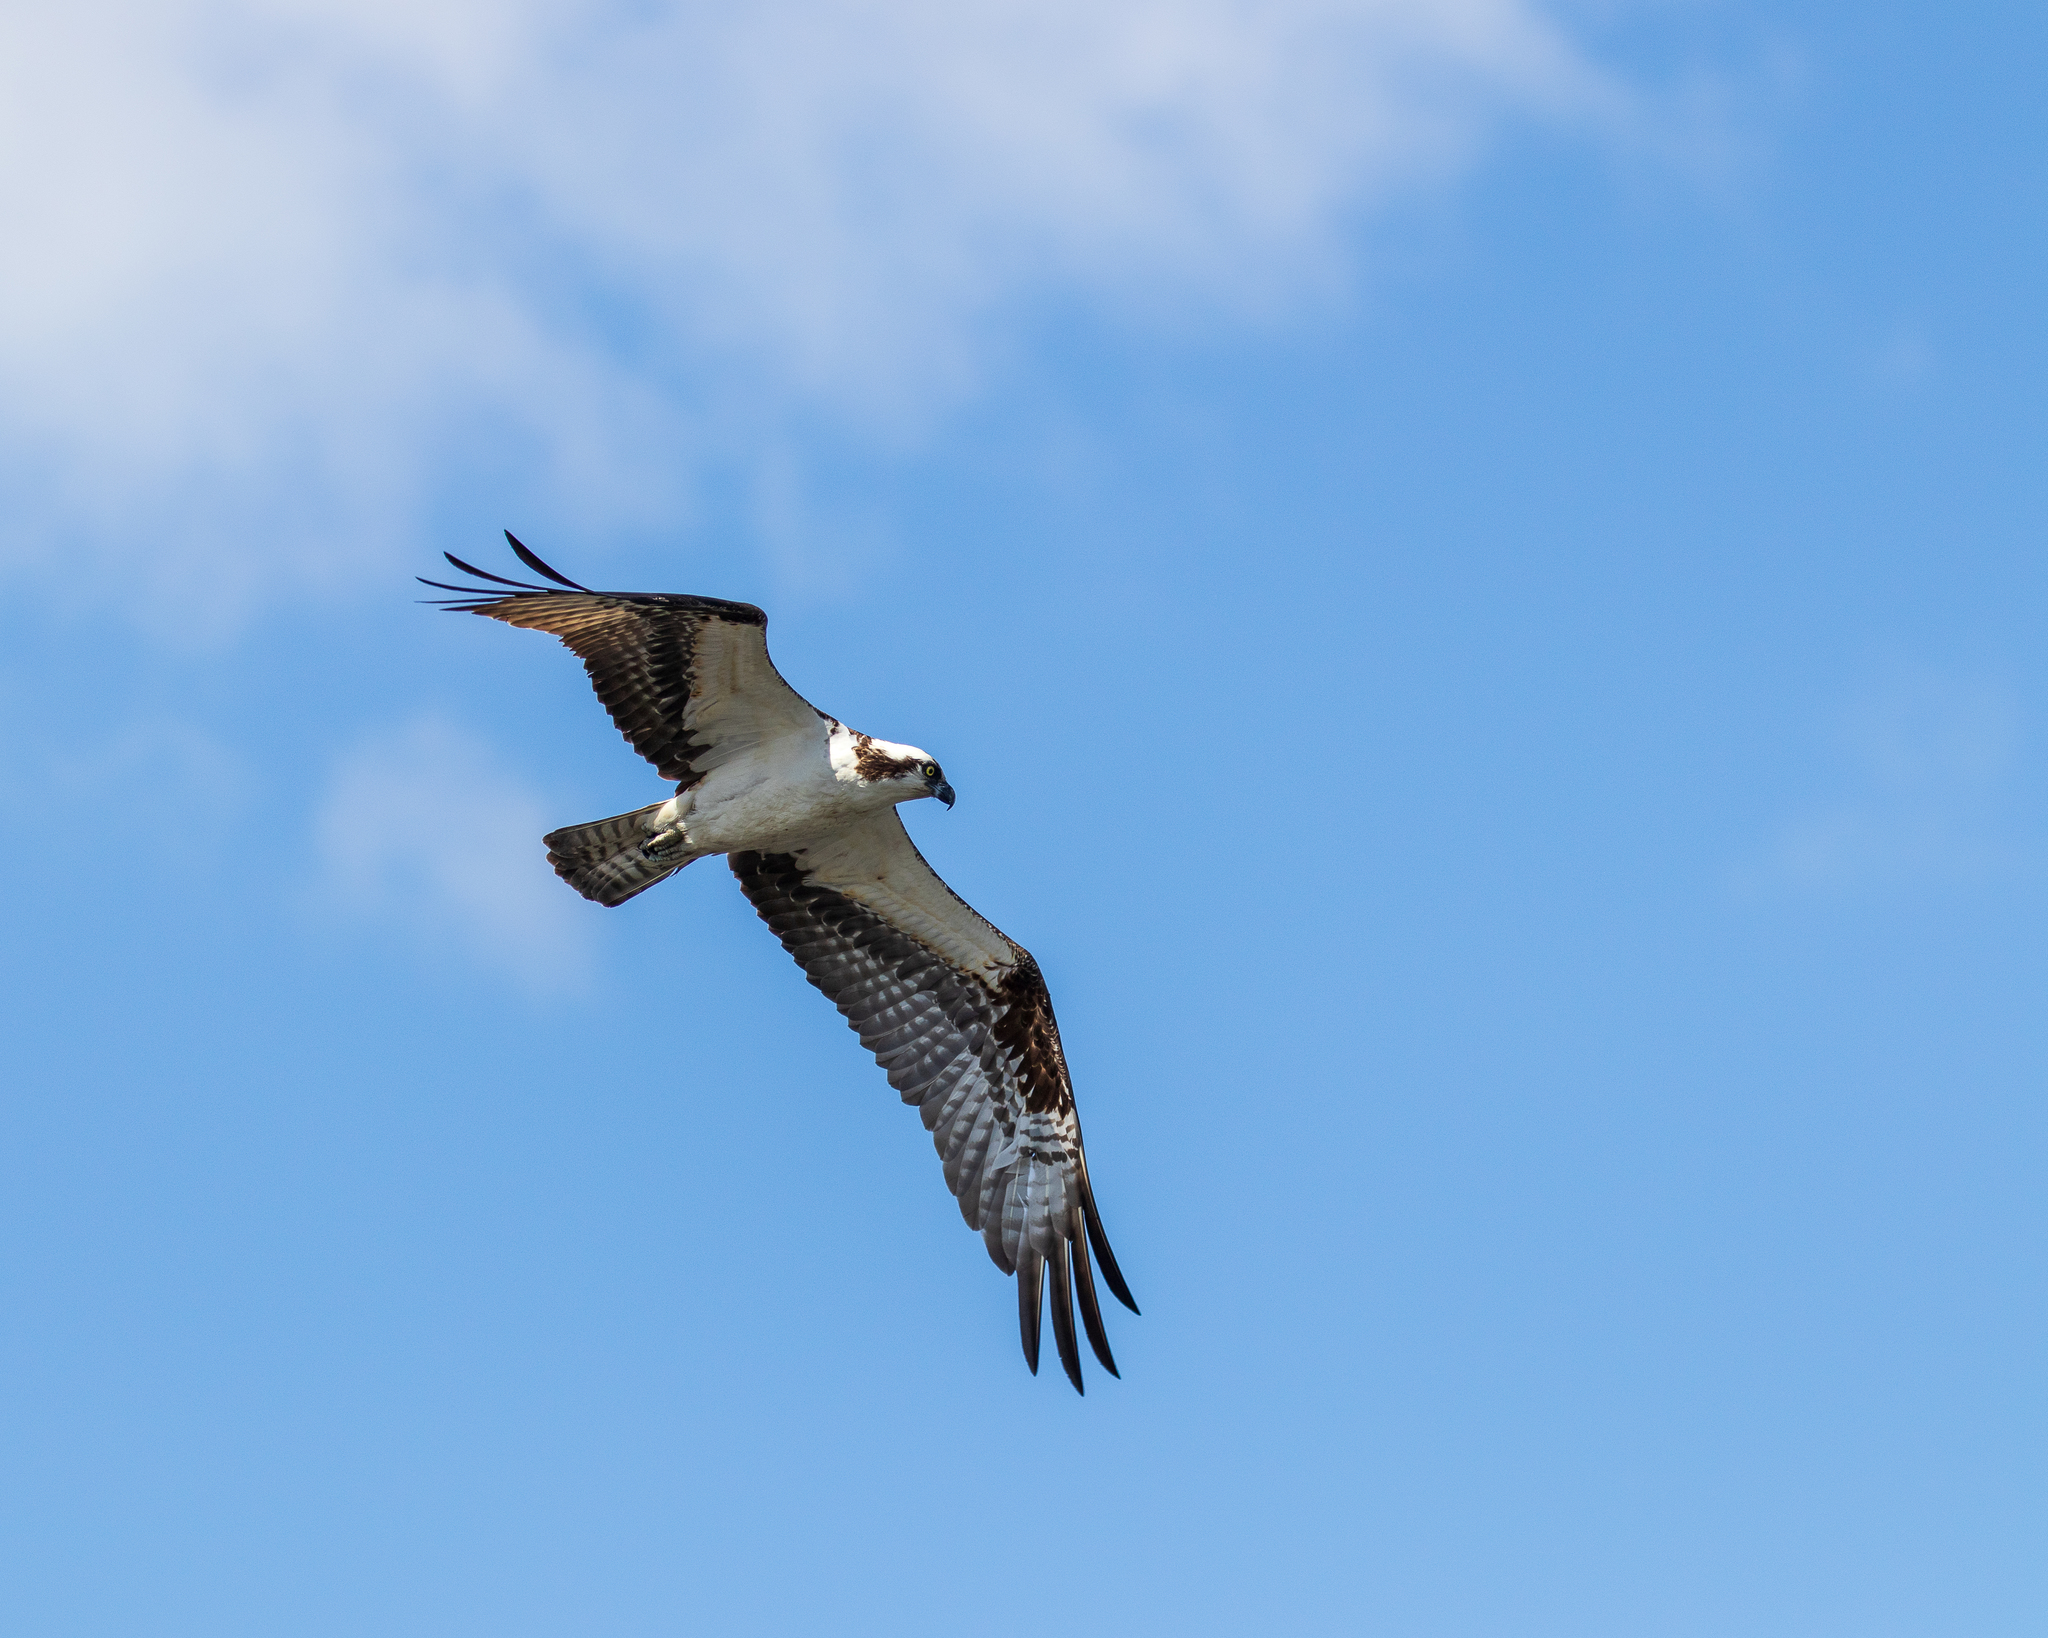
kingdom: Animalia
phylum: Chordata
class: Aves
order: Accipitriformes
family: Pandionidae
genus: Pandion
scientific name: Pandion haliaetus
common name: Osprey
